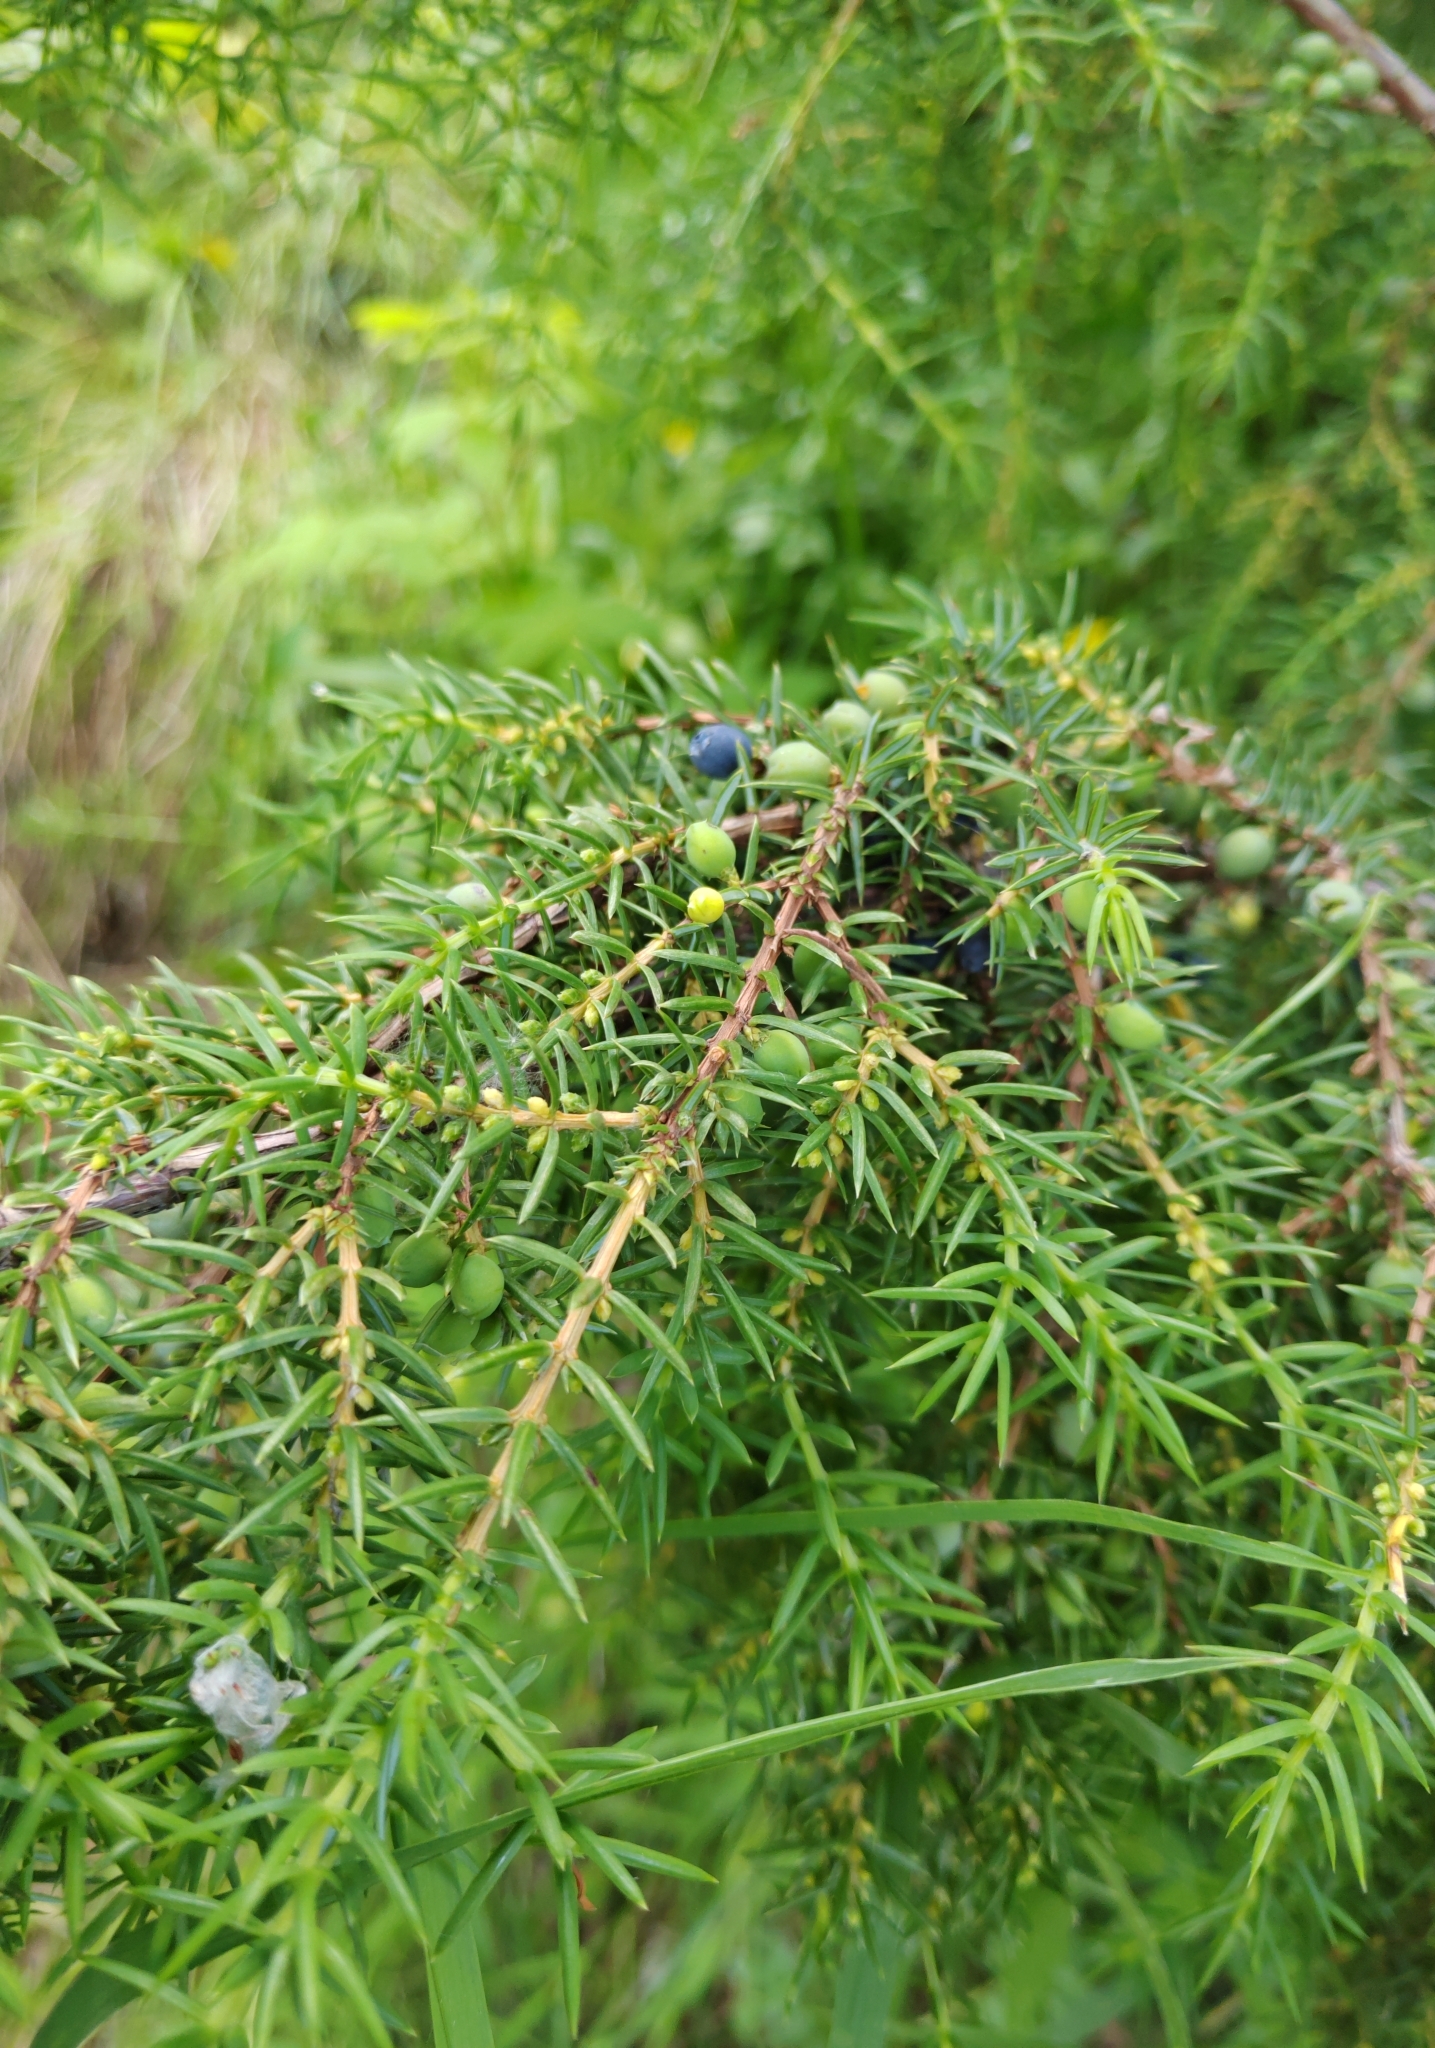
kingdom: Plantae
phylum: Tracheophyta
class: Pinopsida
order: Pinales
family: Cupressaceae
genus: Juniperus
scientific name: Juniperus communis
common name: Common juniper
